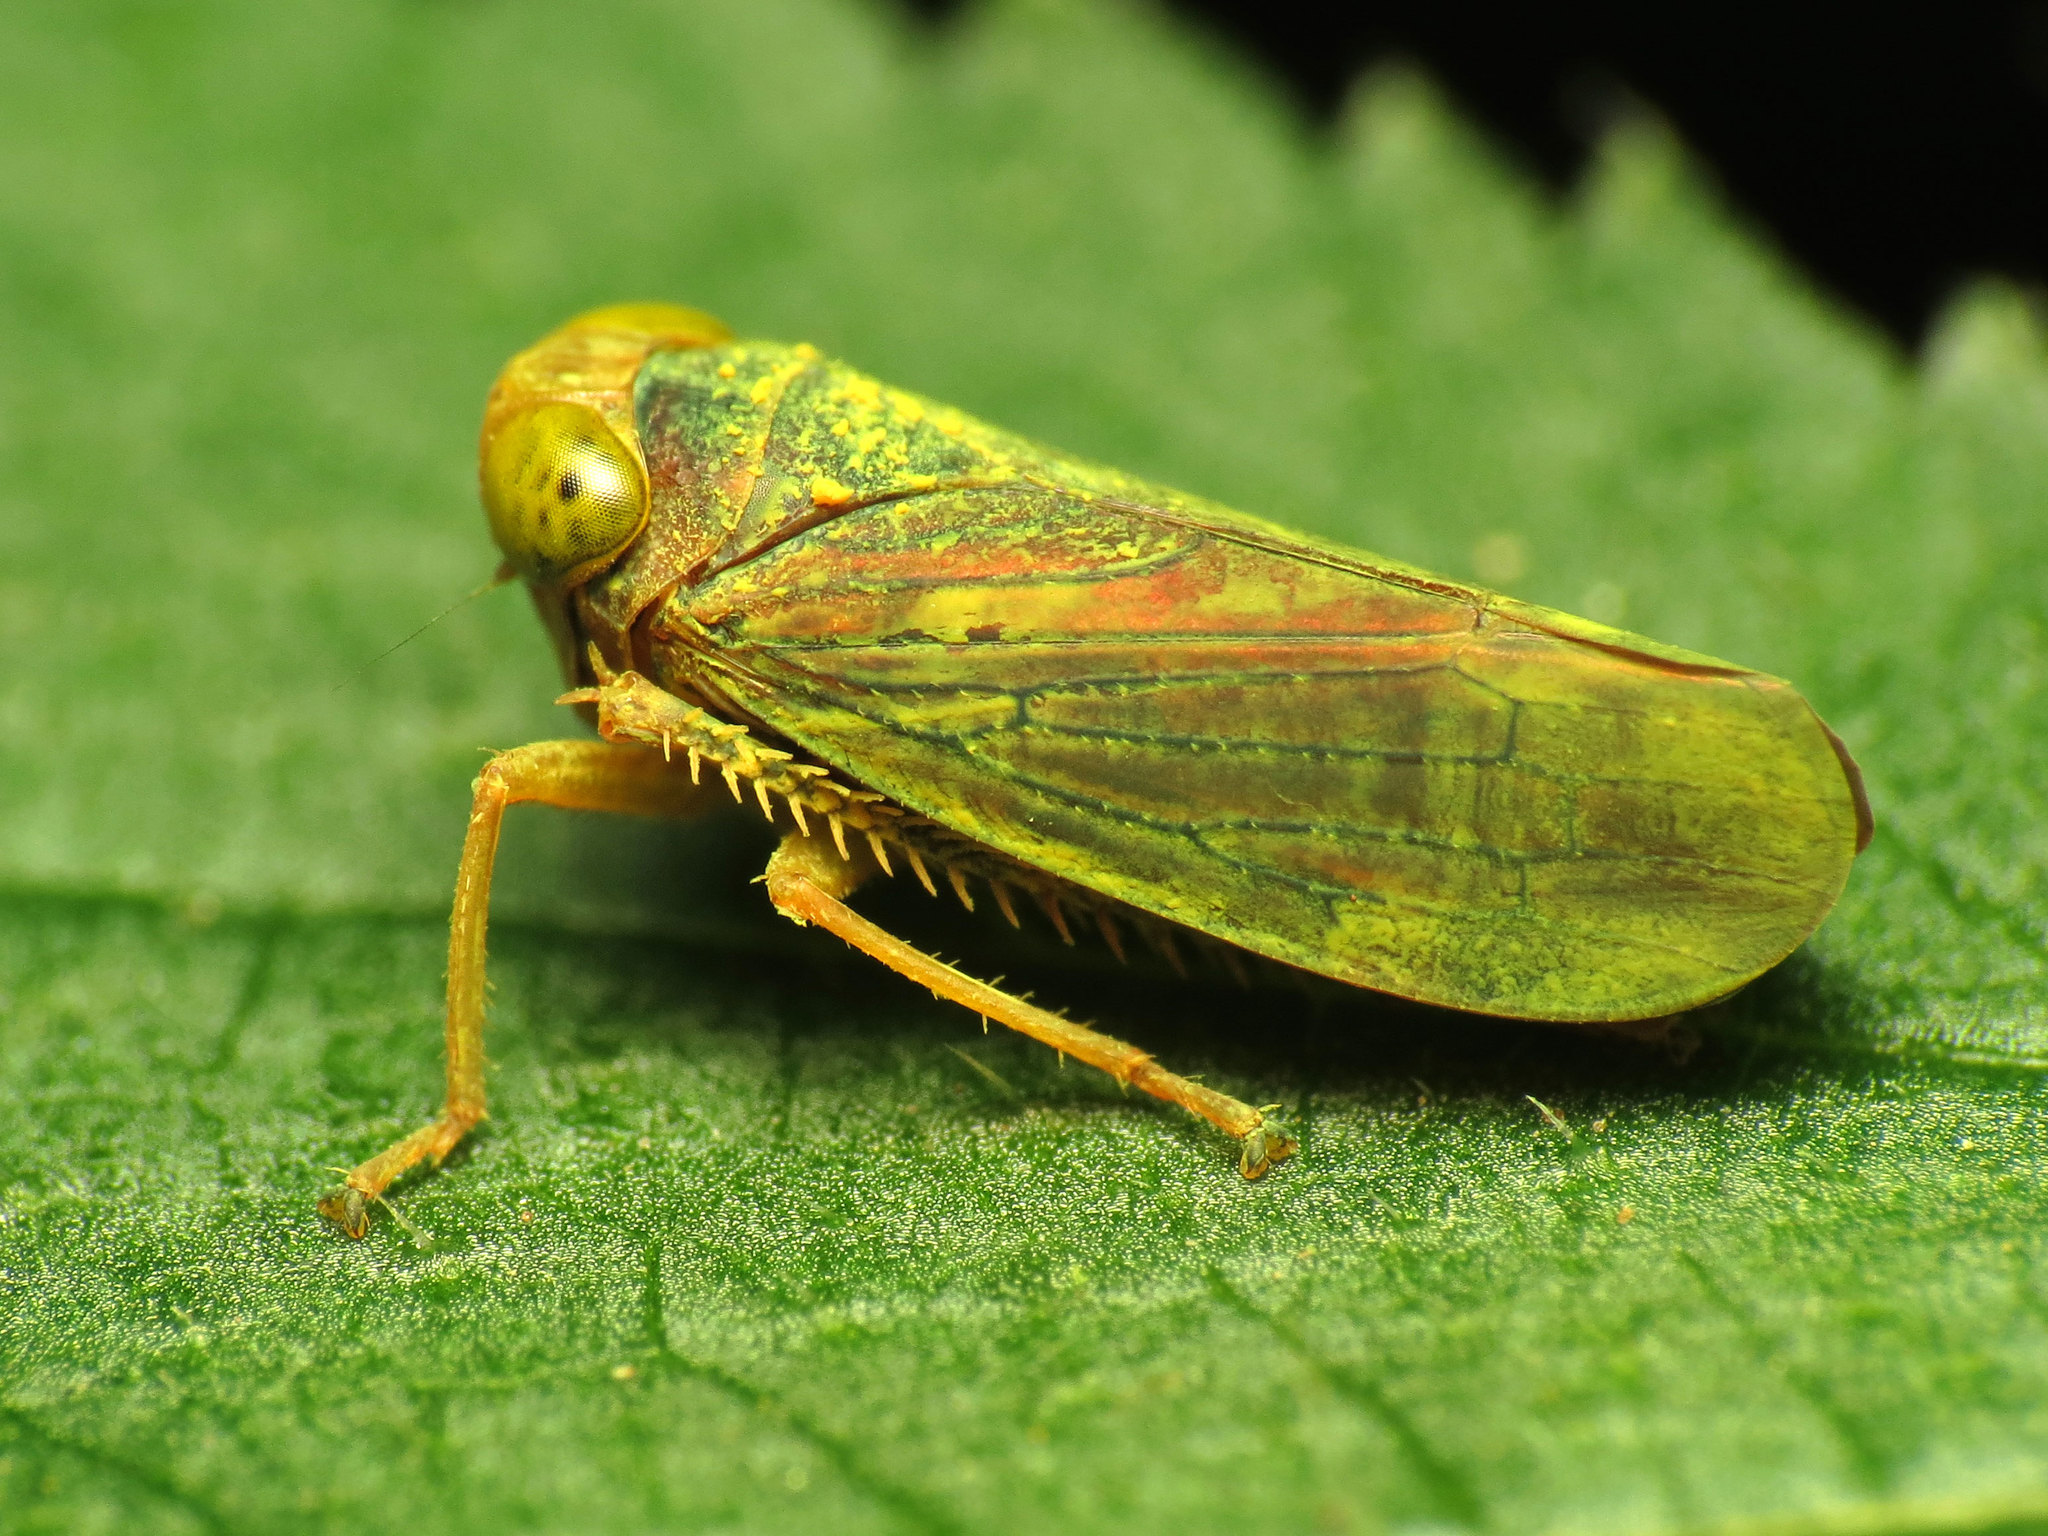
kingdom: Animalia
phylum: Arthropoda
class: Insecta
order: Hemiptera
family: Cicadellidae
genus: Jikradia
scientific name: Jikradia olitoria
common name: Coppery leafhopper
